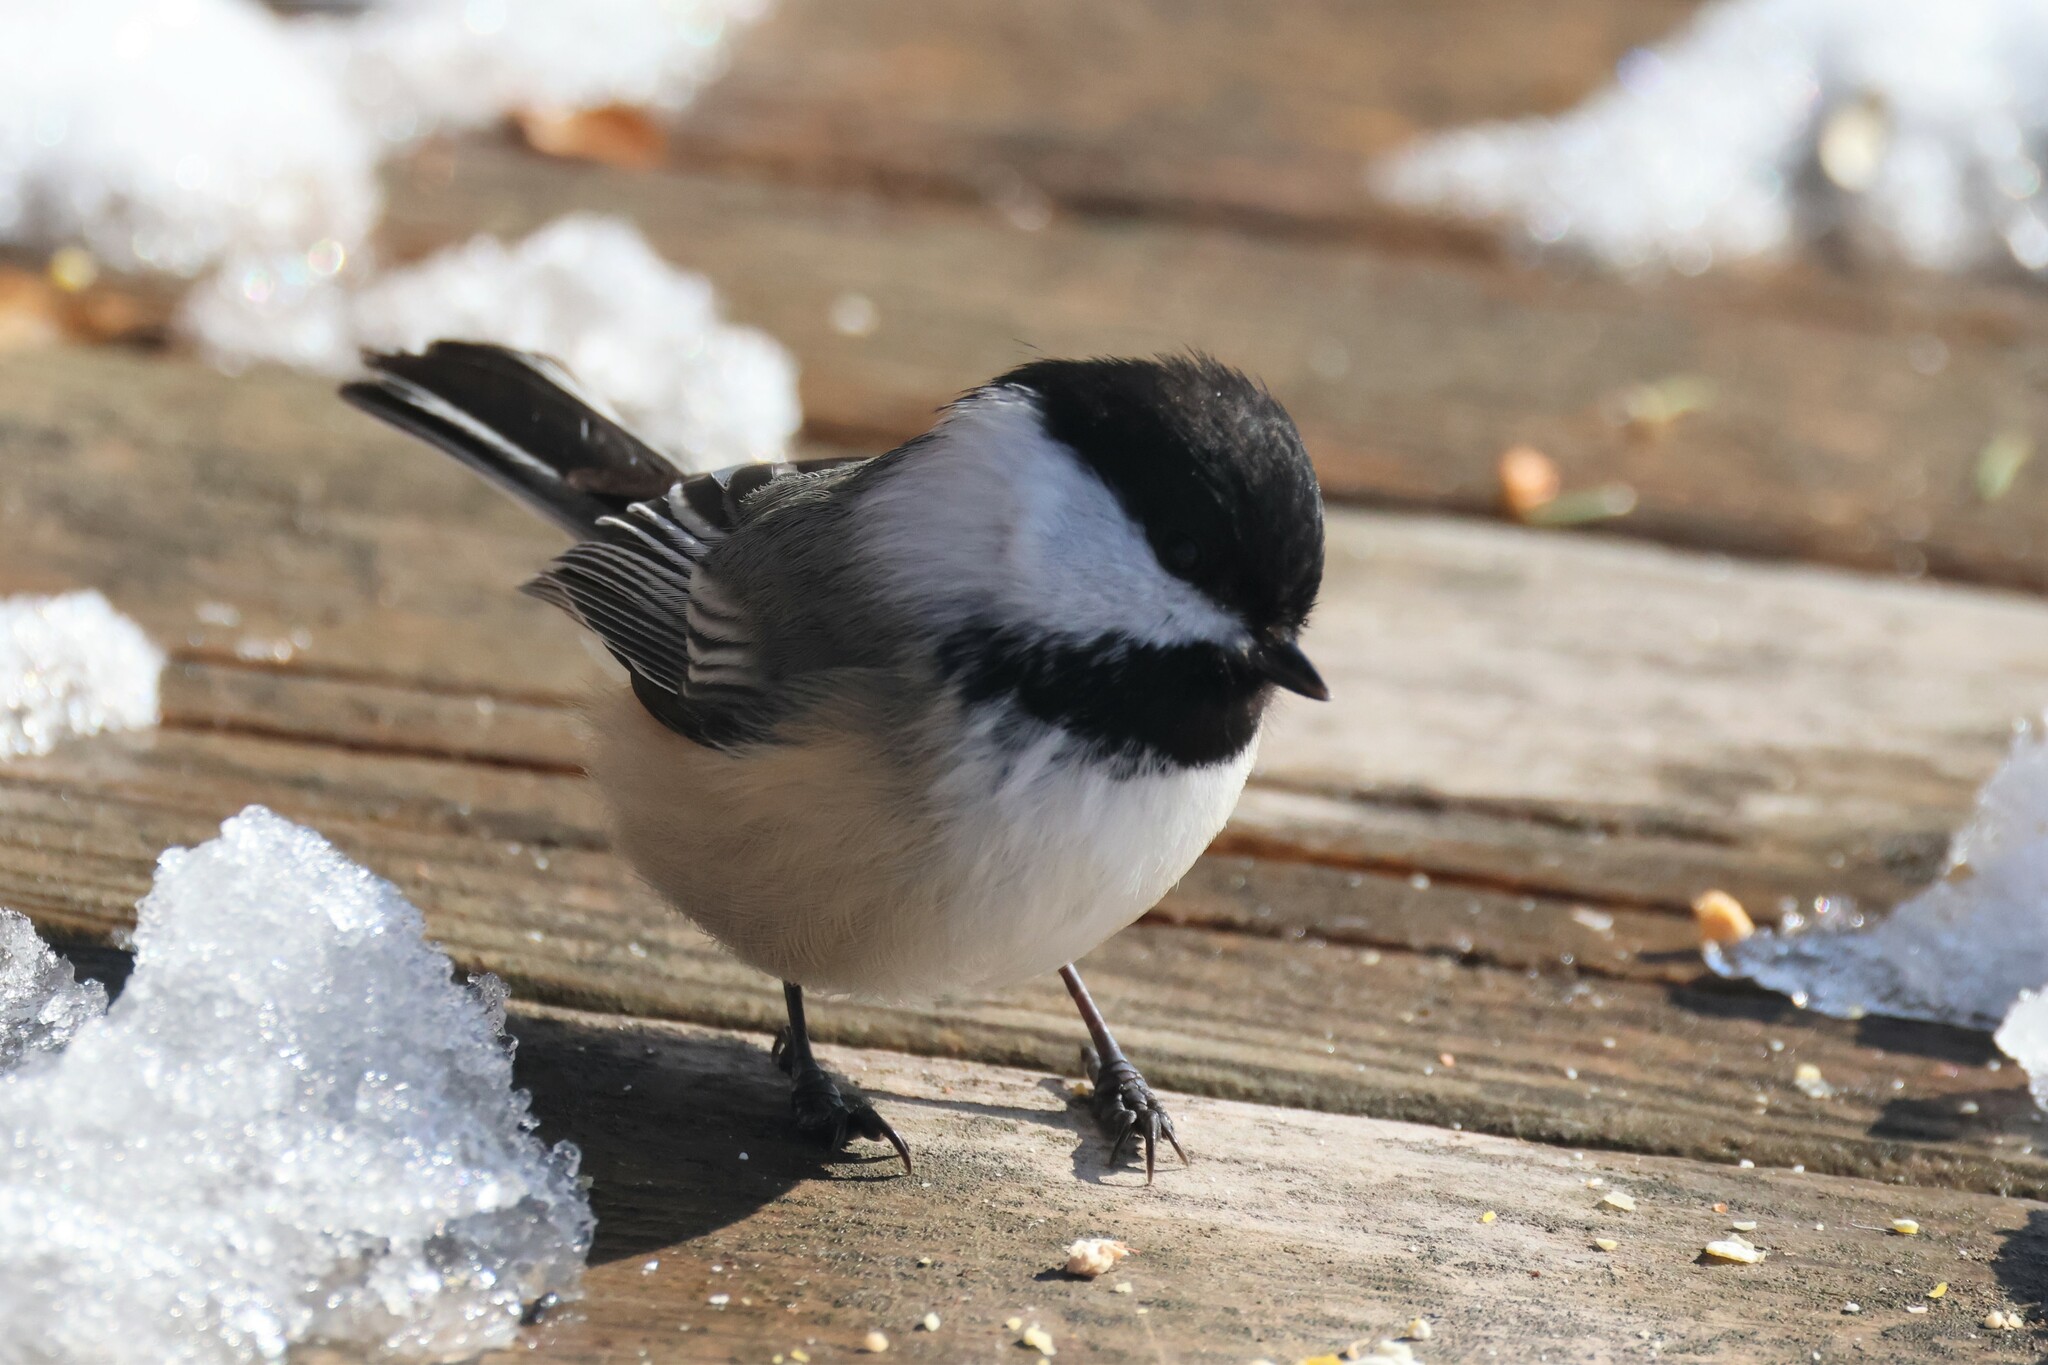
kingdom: Animalia
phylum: Chordata
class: Aves
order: Passeriformes
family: Paridae
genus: Poecile
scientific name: Poecile atricapillus
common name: Black-capped chickadee
